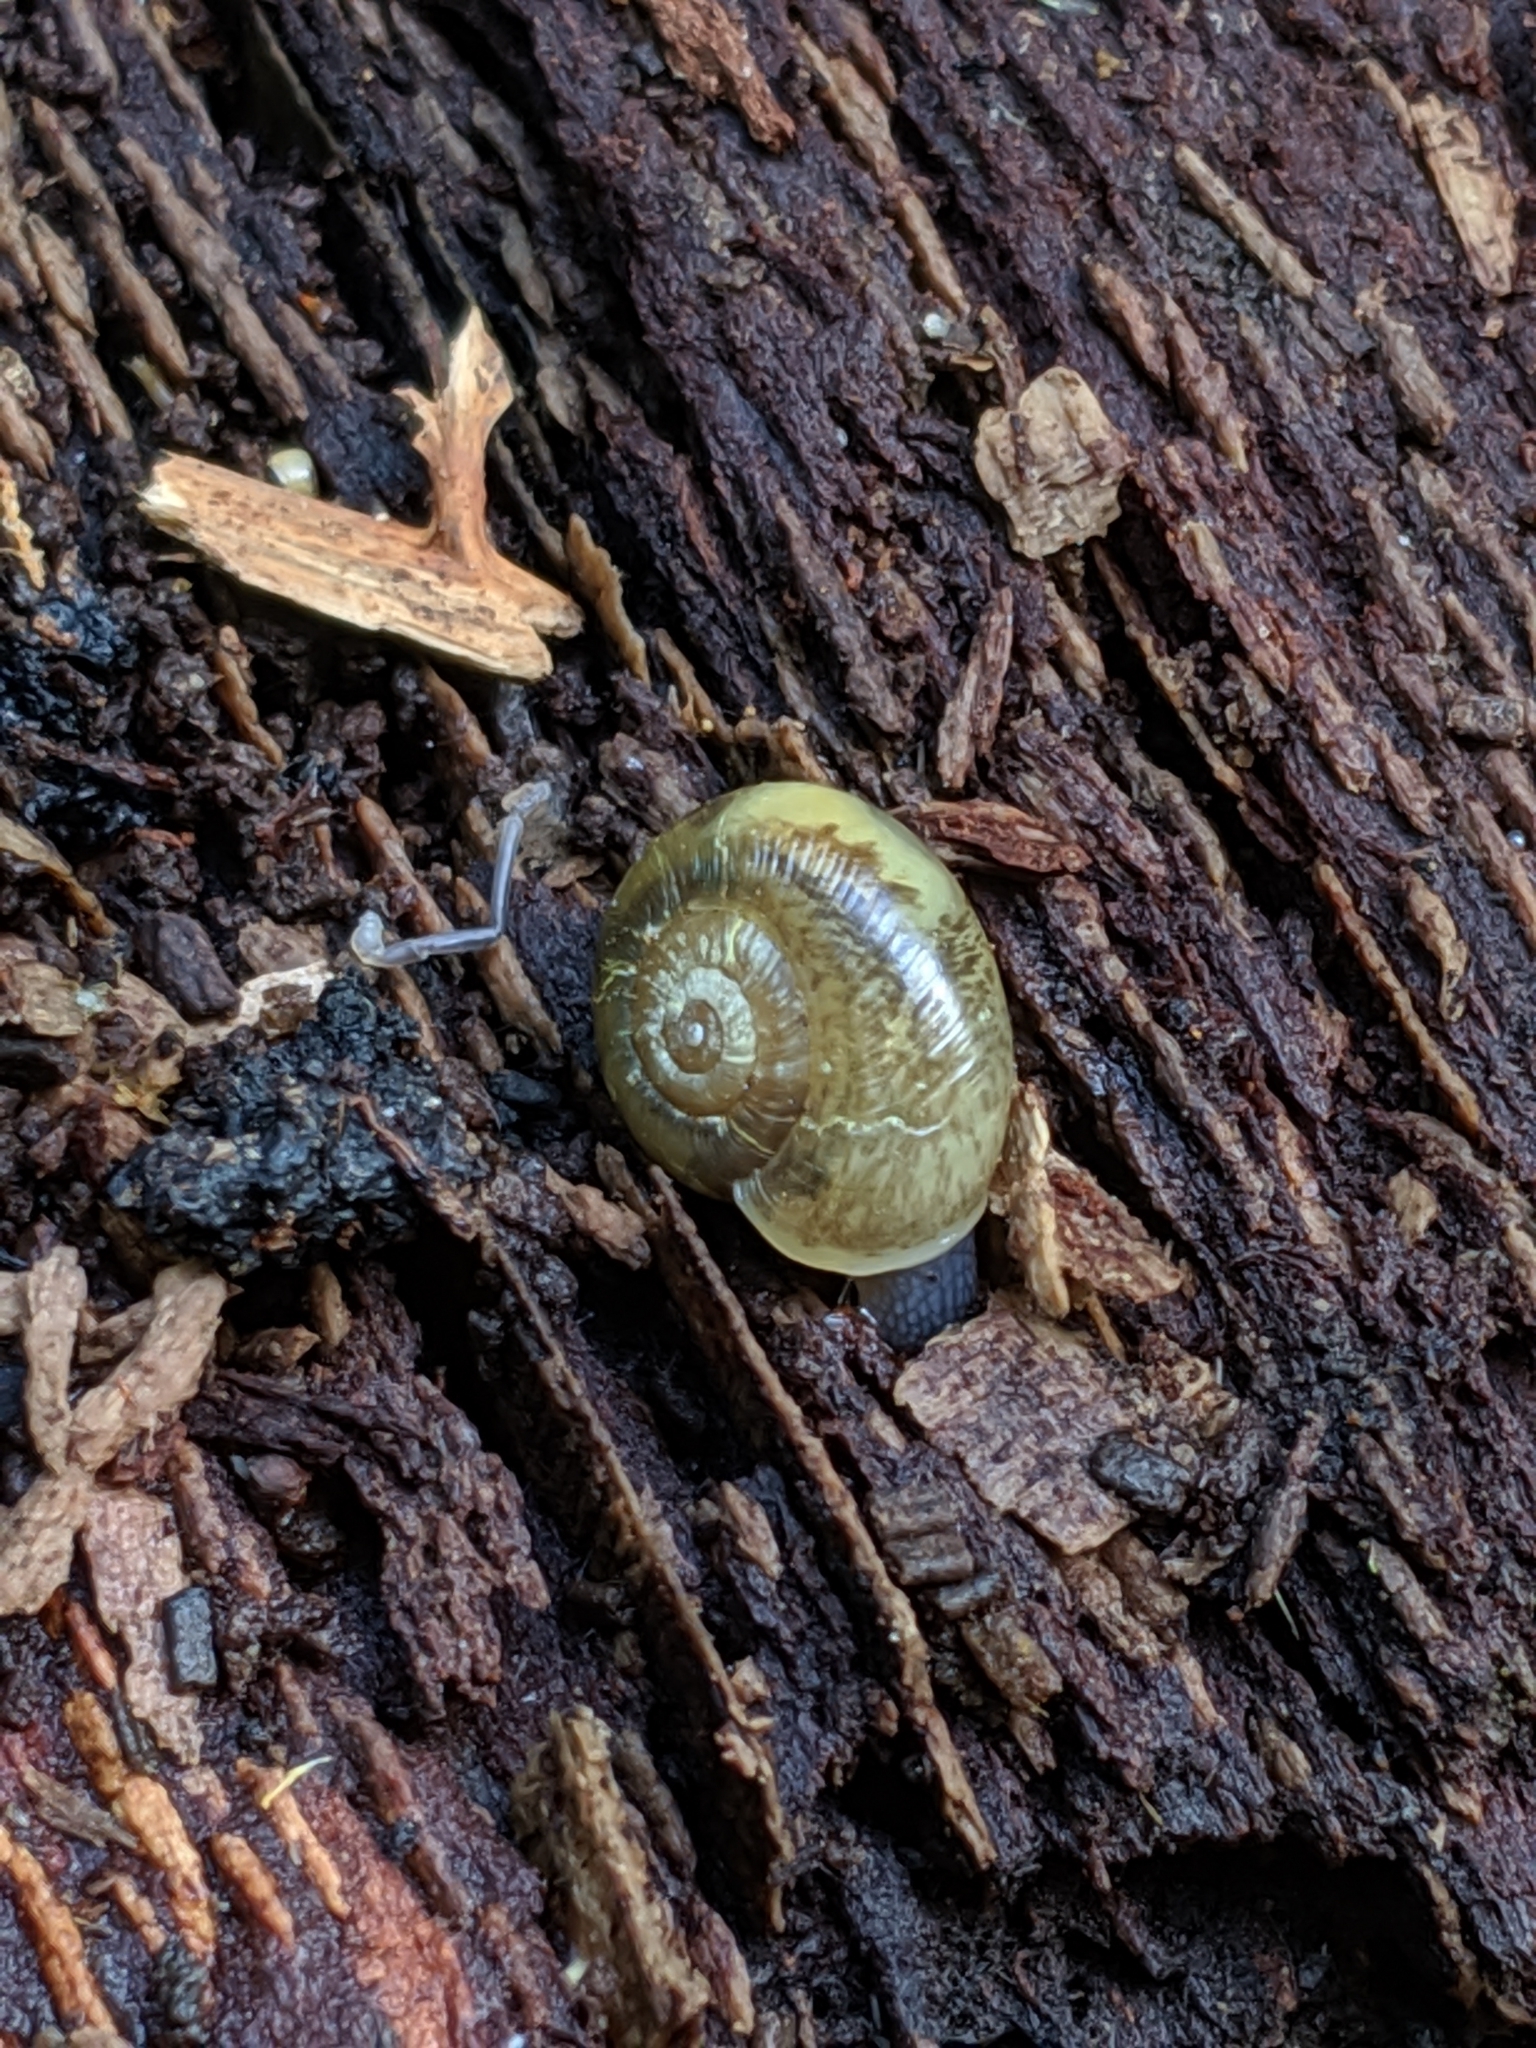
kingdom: Animalia
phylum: Mollusca
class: Gastropoda
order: Stylommatophora
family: Haplotrematidae
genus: Haplotrema
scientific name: Haplotrema vancouverense
